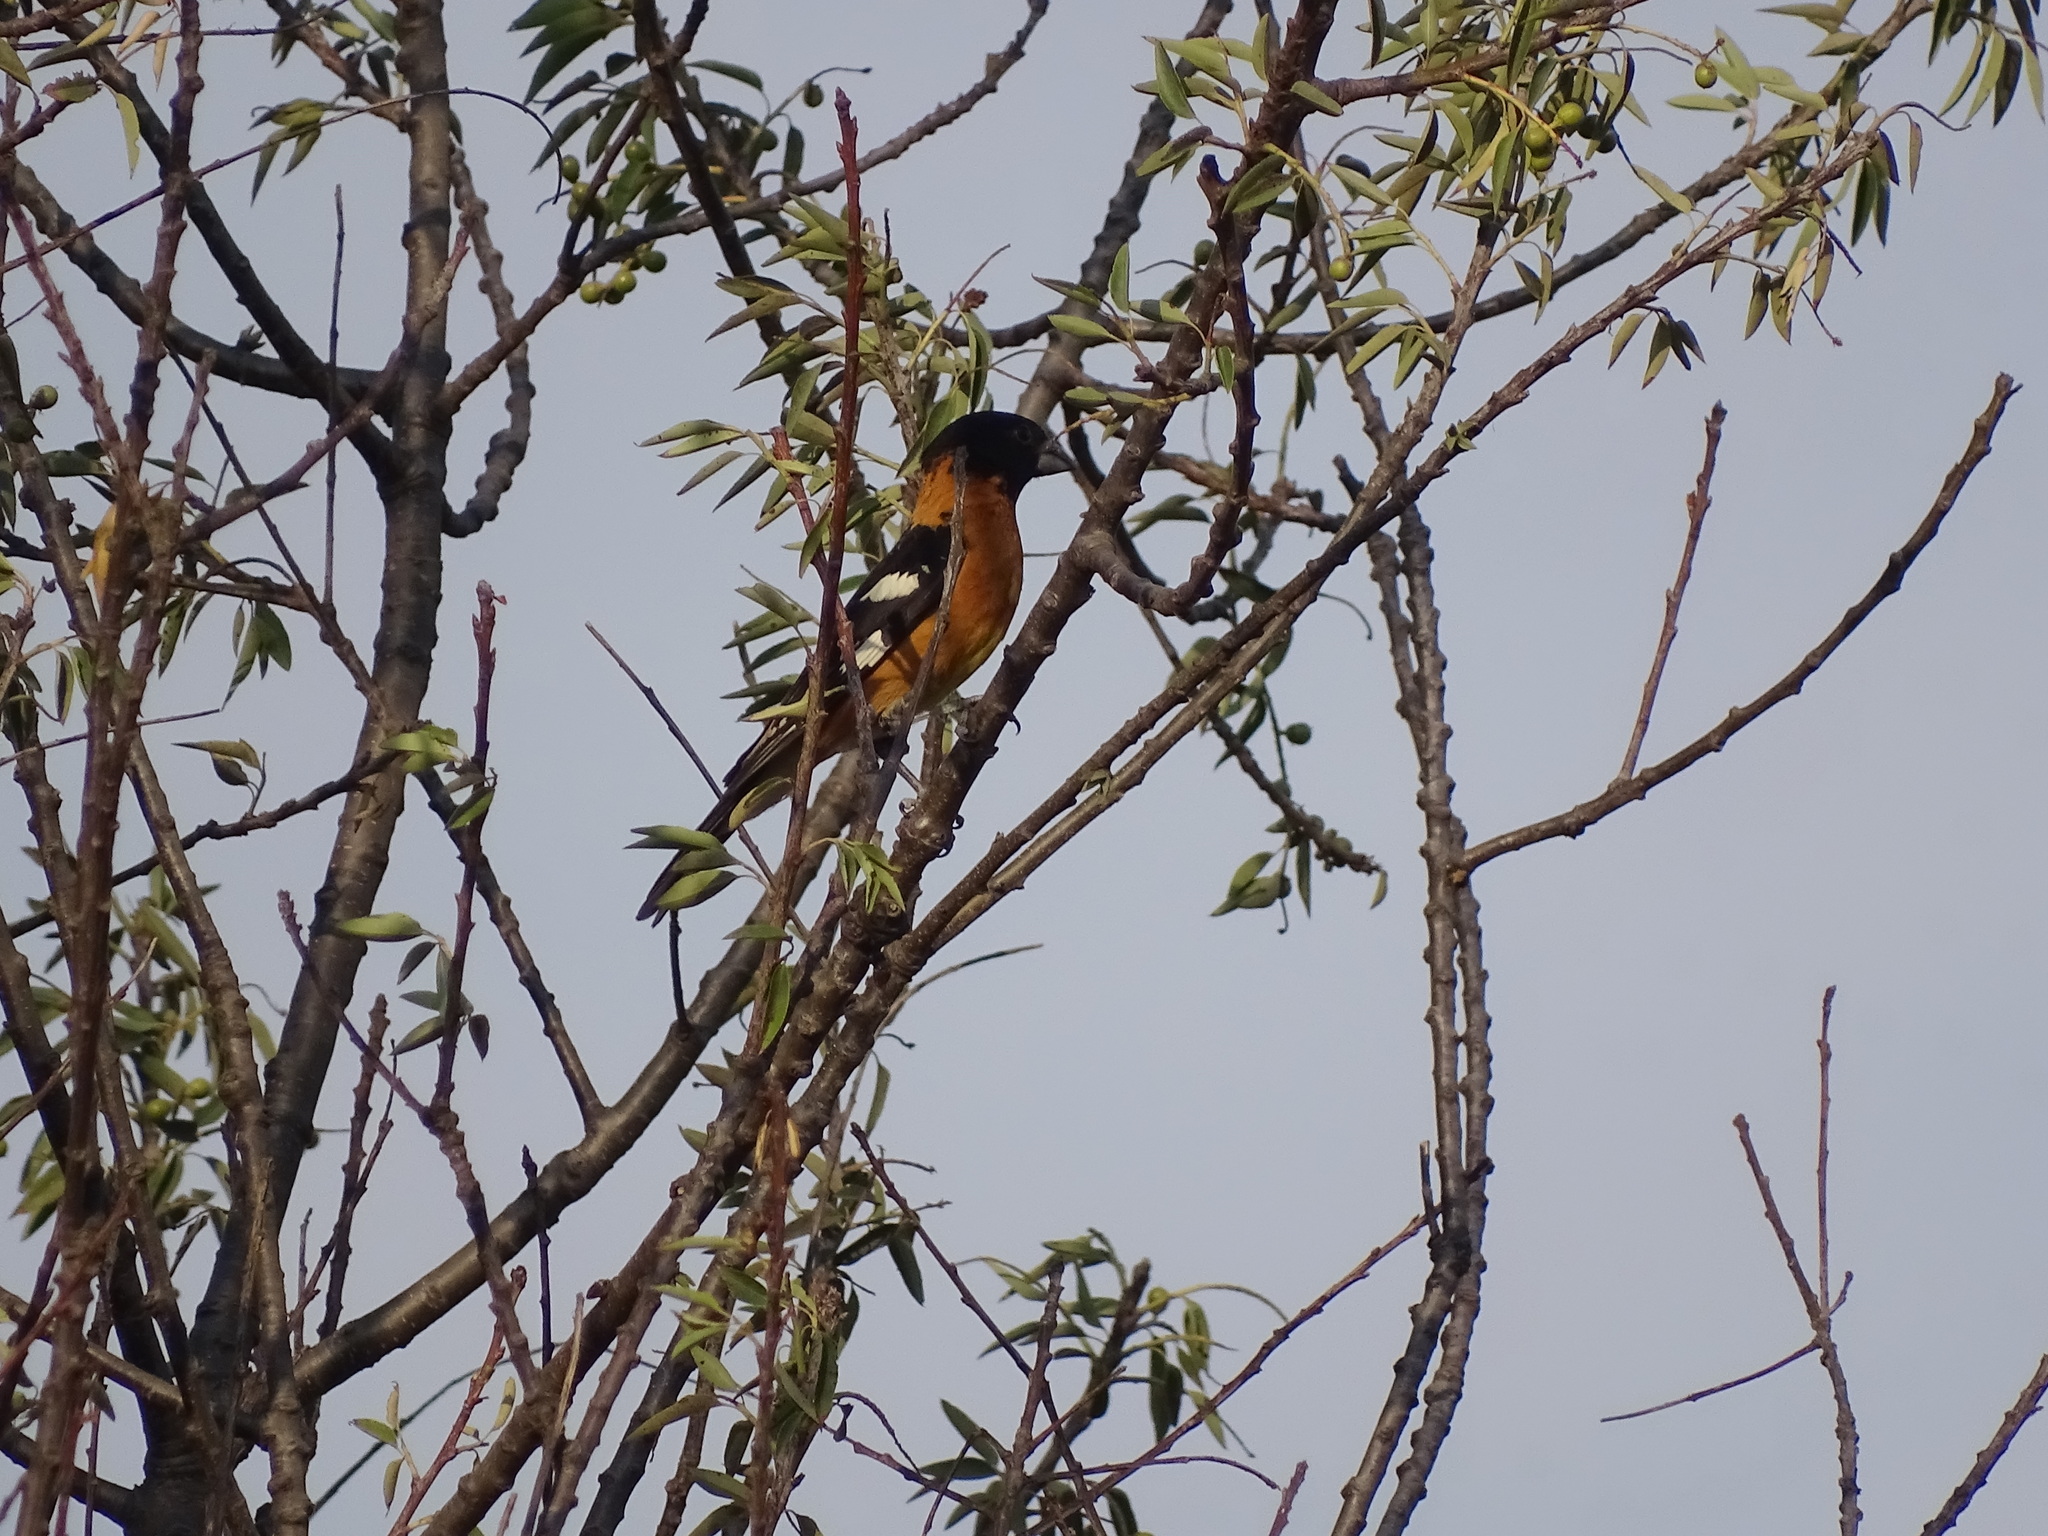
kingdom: Animalia
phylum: Chordata
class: Aves
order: Passeriformes
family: Cardinalidae
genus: Pheucticus
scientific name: Pheucticus melanocephalus
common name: Black-headed grosbeak
